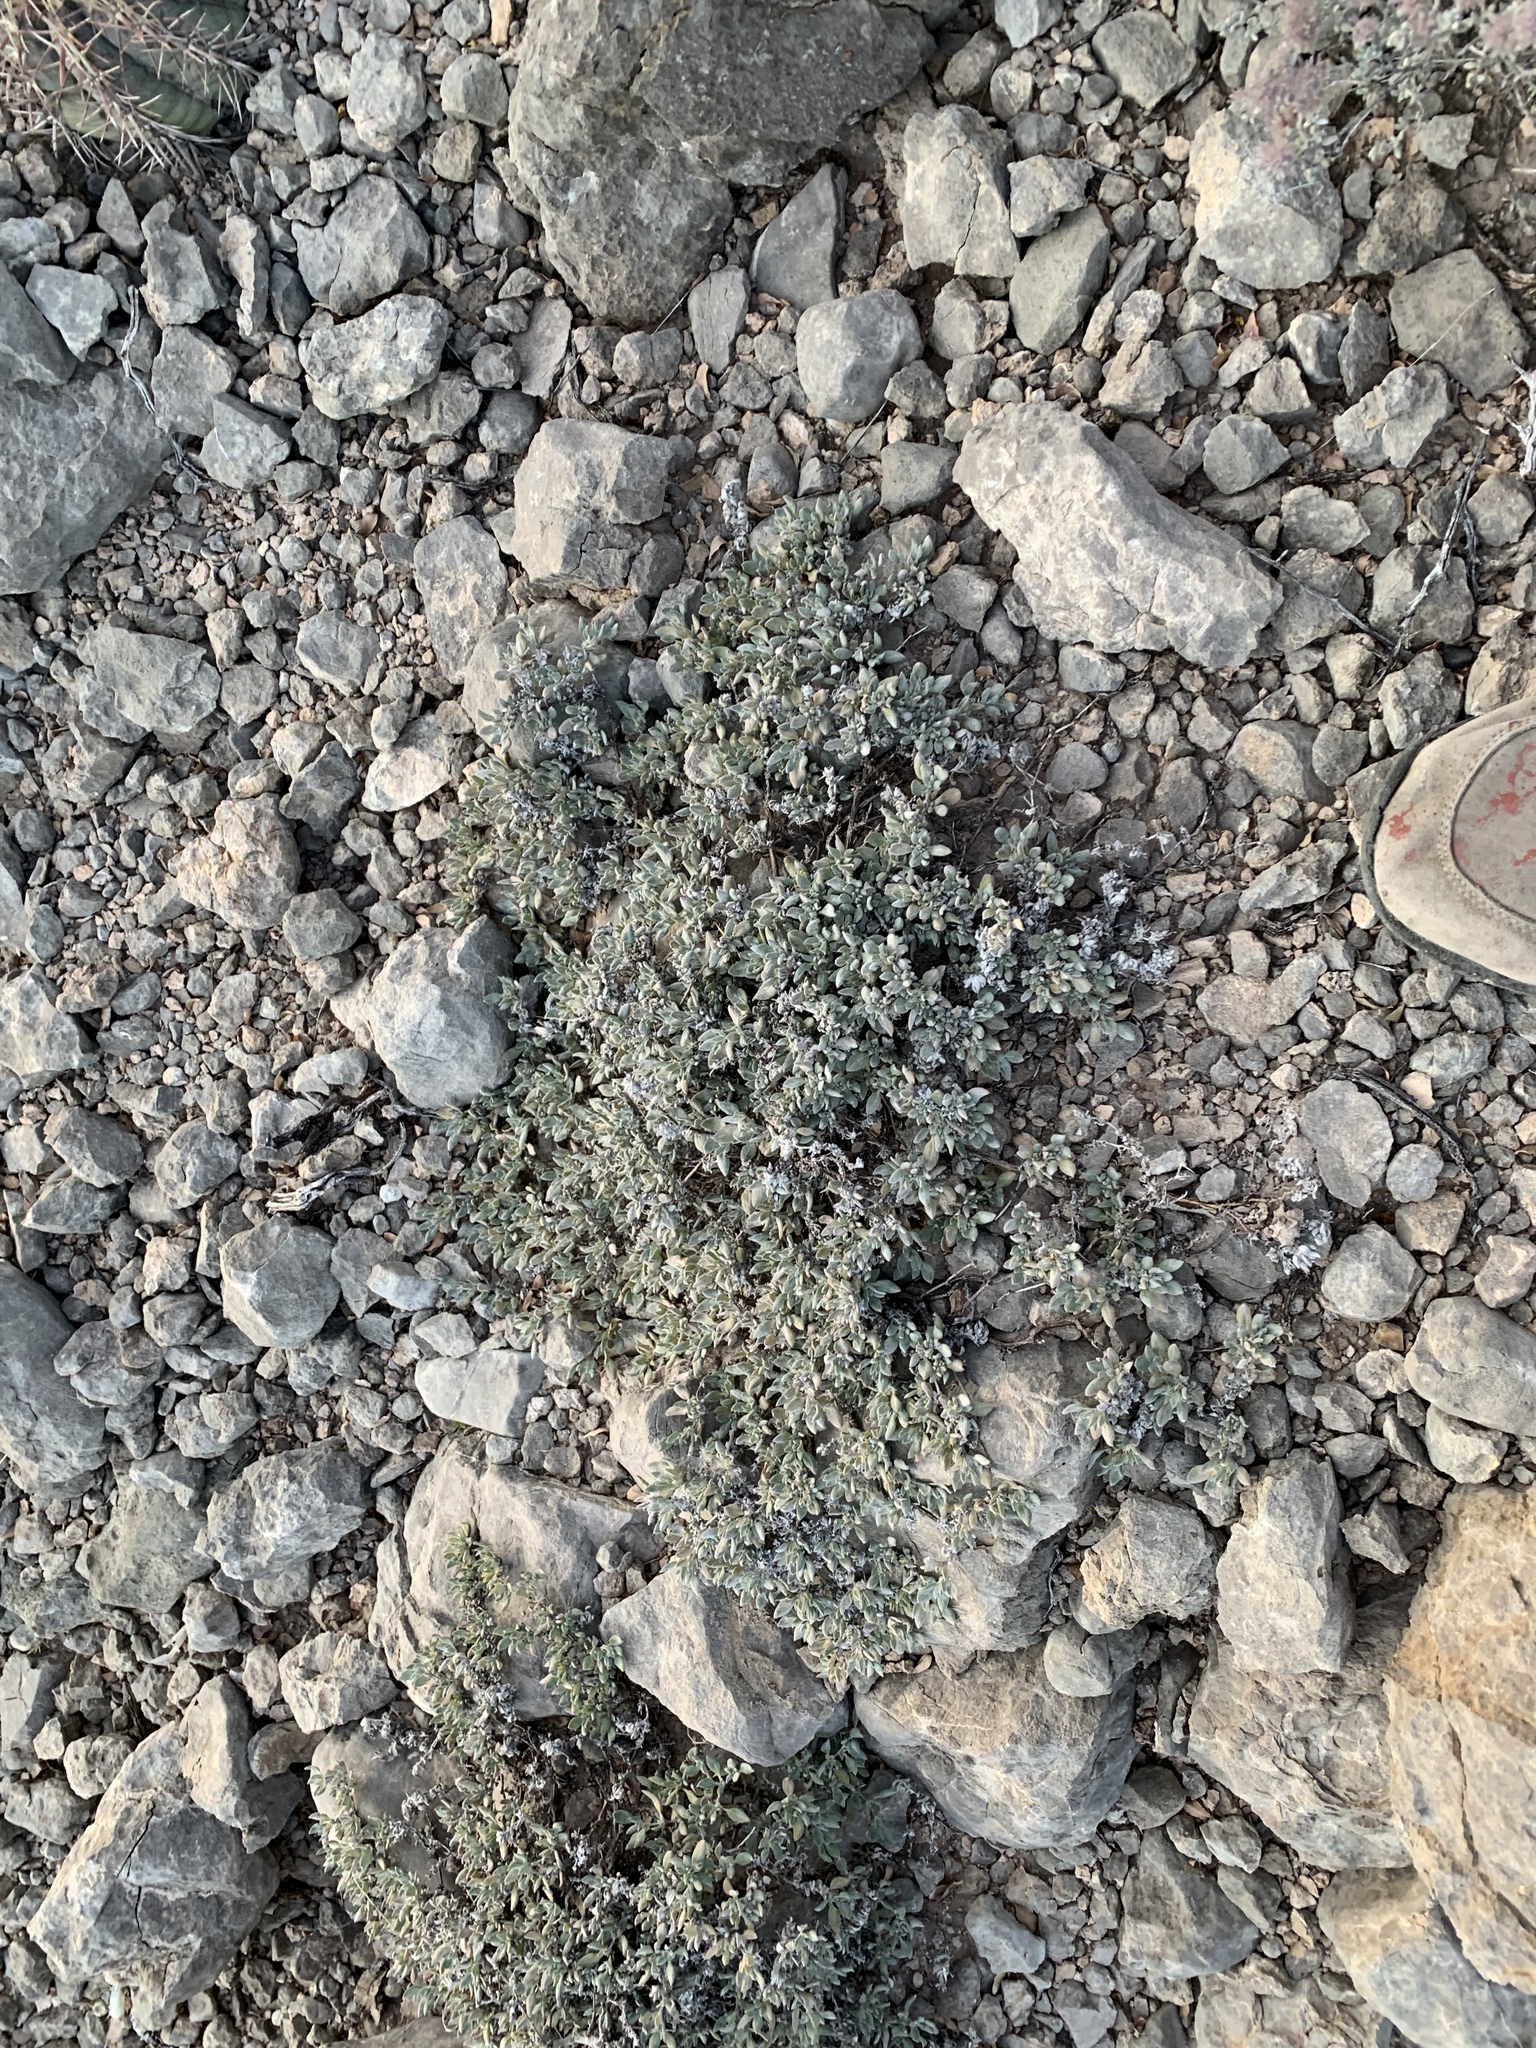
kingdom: Plantae
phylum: Tracheophyta
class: Magnoliopsida
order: Boraginales
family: Ehretiaceae
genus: Tiquilia
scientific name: Tiquilia canescens
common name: Hairy tiquilia
